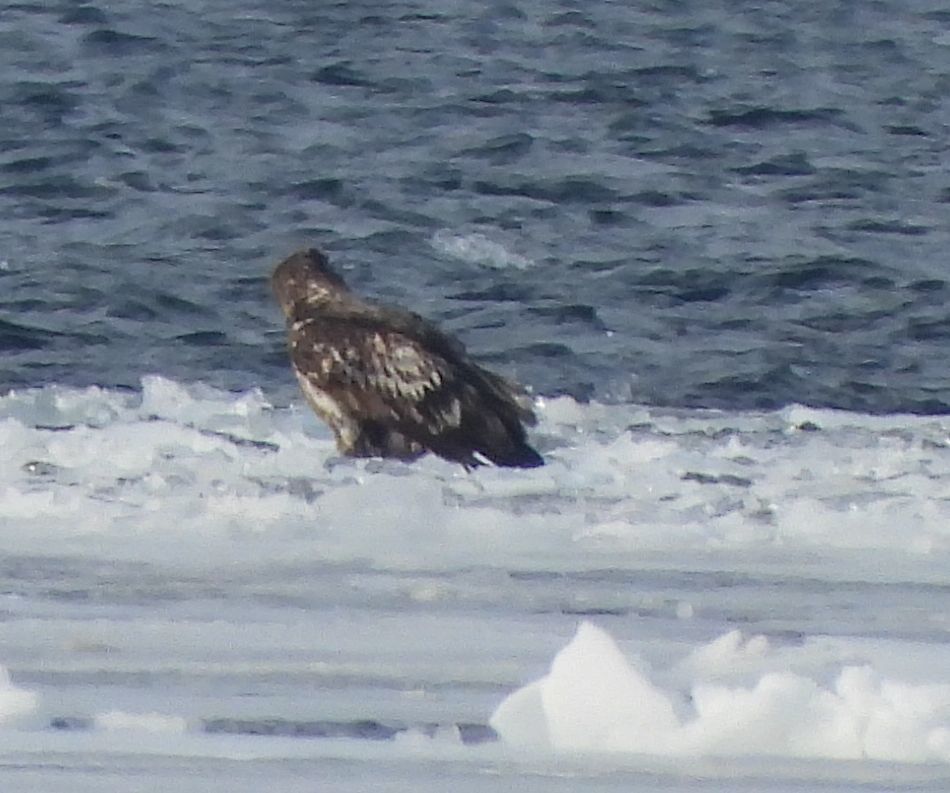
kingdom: Animalia
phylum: Chordata
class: Aves
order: Accipitriformes
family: Accipitridae
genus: Haliaeetus
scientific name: Haliaeetus leucocephalus
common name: Bald eagle
